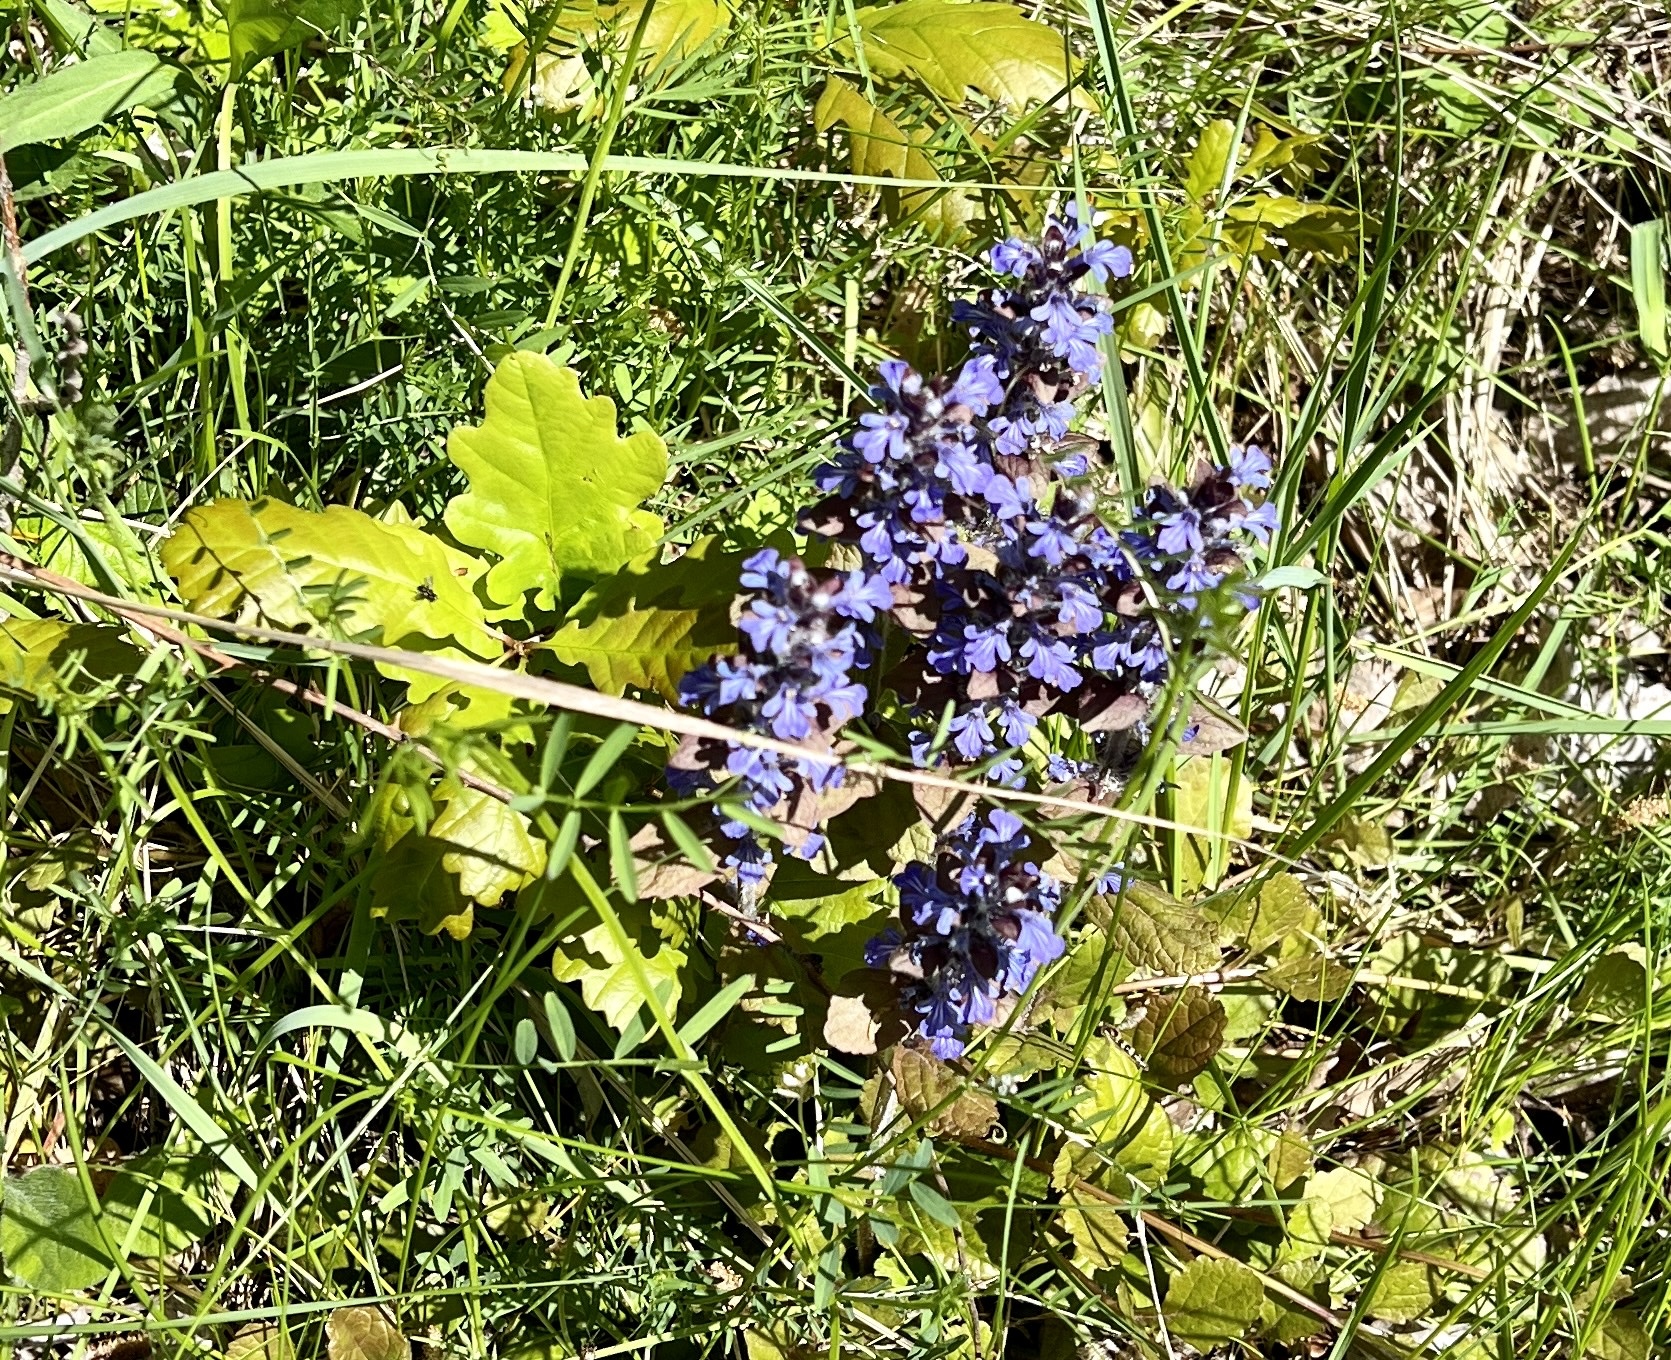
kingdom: Plantae
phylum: Tracheophyta
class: Magnoliopsida
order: Lamiales
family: Lamiaceae
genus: Ajuga
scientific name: Ajuga reptans
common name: Bugle
